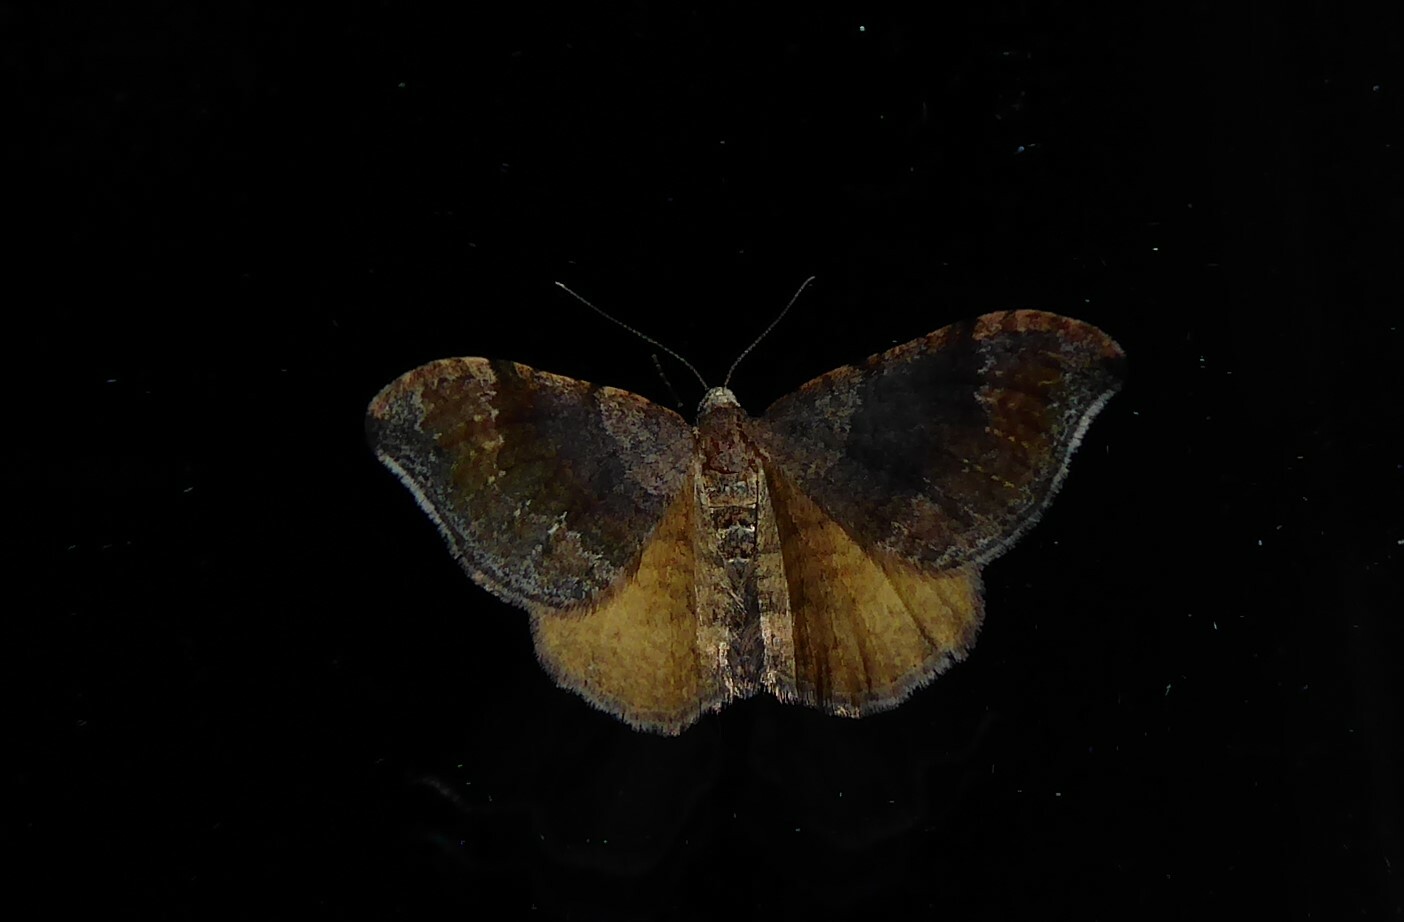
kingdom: Animalia
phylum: Arthropoda
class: Insecta
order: Lepidoptera
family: Geometridae
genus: Homodotis
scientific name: Homodotis megaspilata
